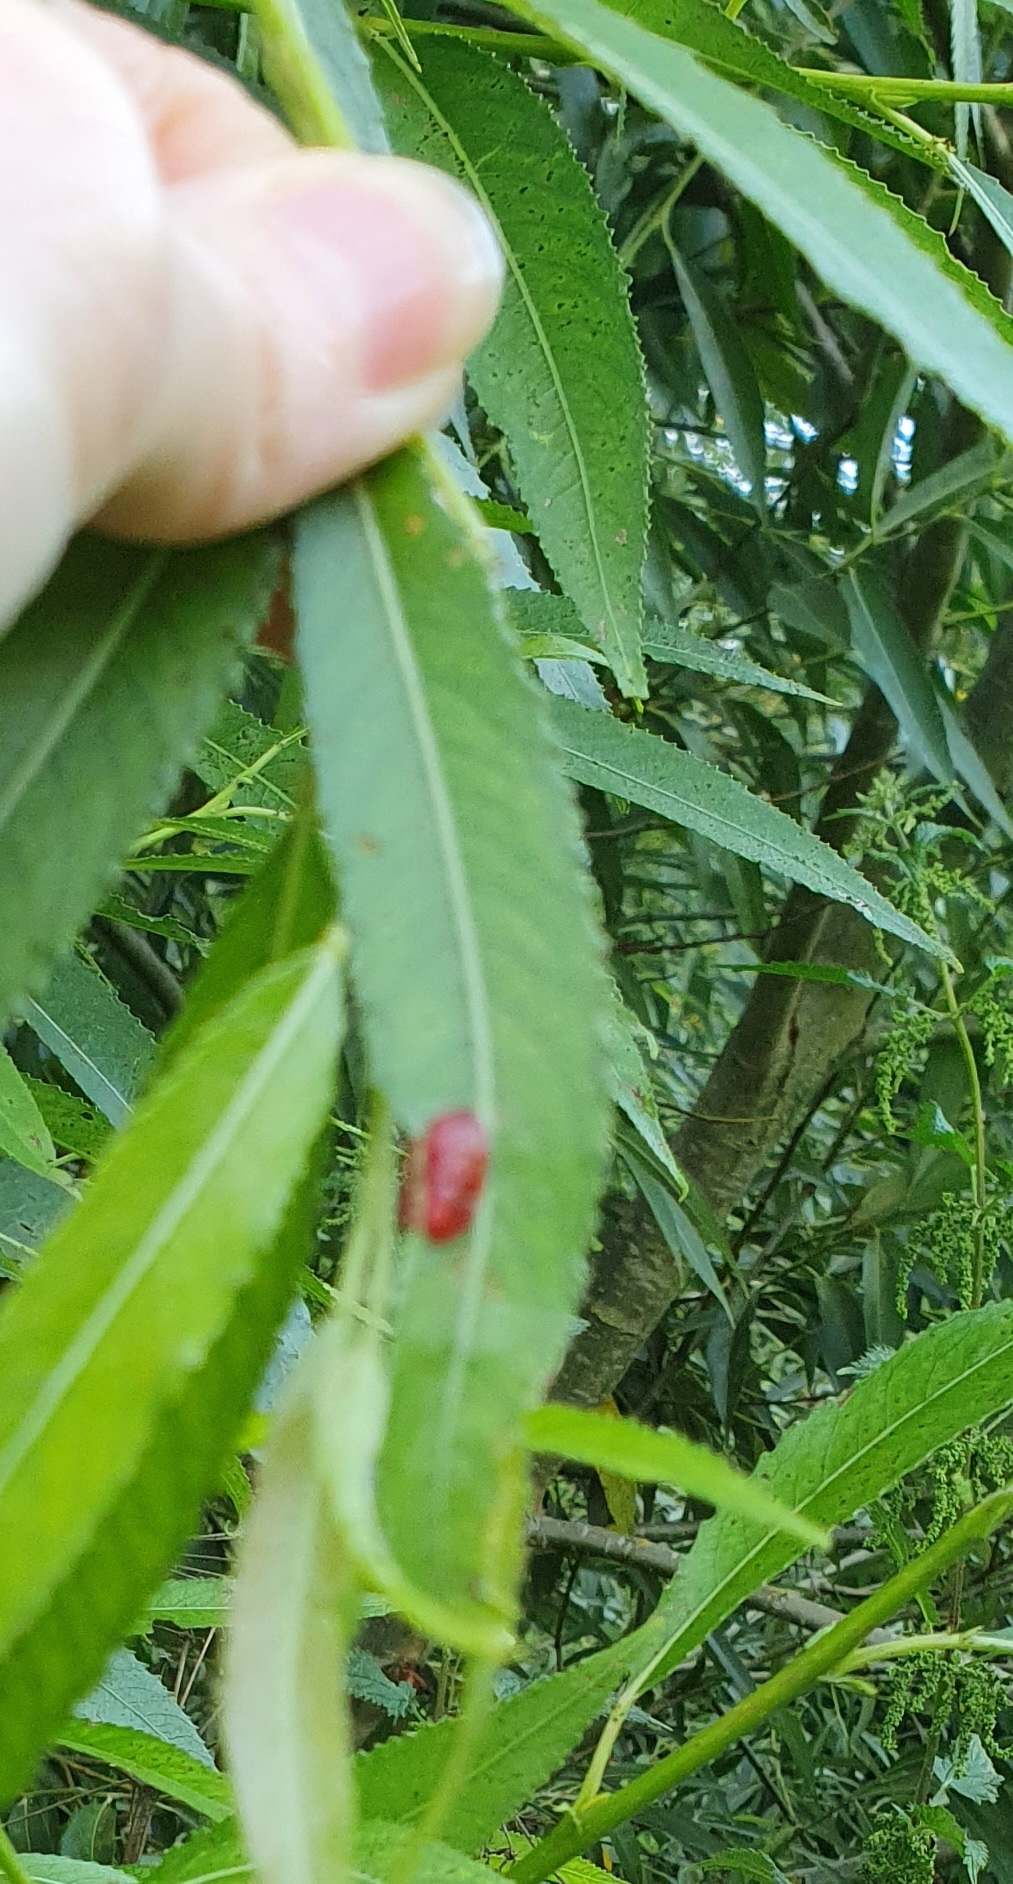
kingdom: Animalia
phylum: Arthropoda
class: Insecta
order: Hymenoptera
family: Tenthredinidae
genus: Pontania
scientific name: Pontania proxima
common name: Common sawfly
